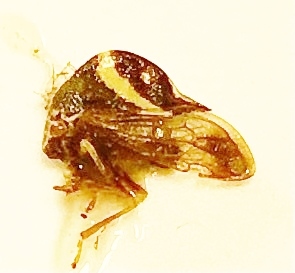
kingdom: Animalia
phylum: Arthropoda
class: Insecta
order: Hemiptera
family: Membracidae
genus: Smilia
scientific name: Smilia fasciata
